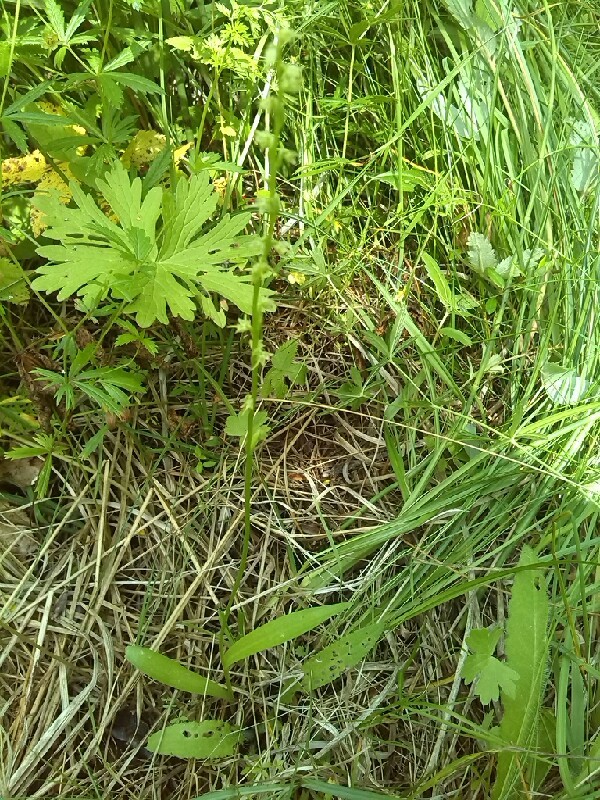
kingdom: Plantae
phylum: Tracheophyta
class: Liliopsida
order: Asparagales
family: Orchidaceae
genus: Herminium
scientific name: Herminium monorchis
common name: Musk orchid
